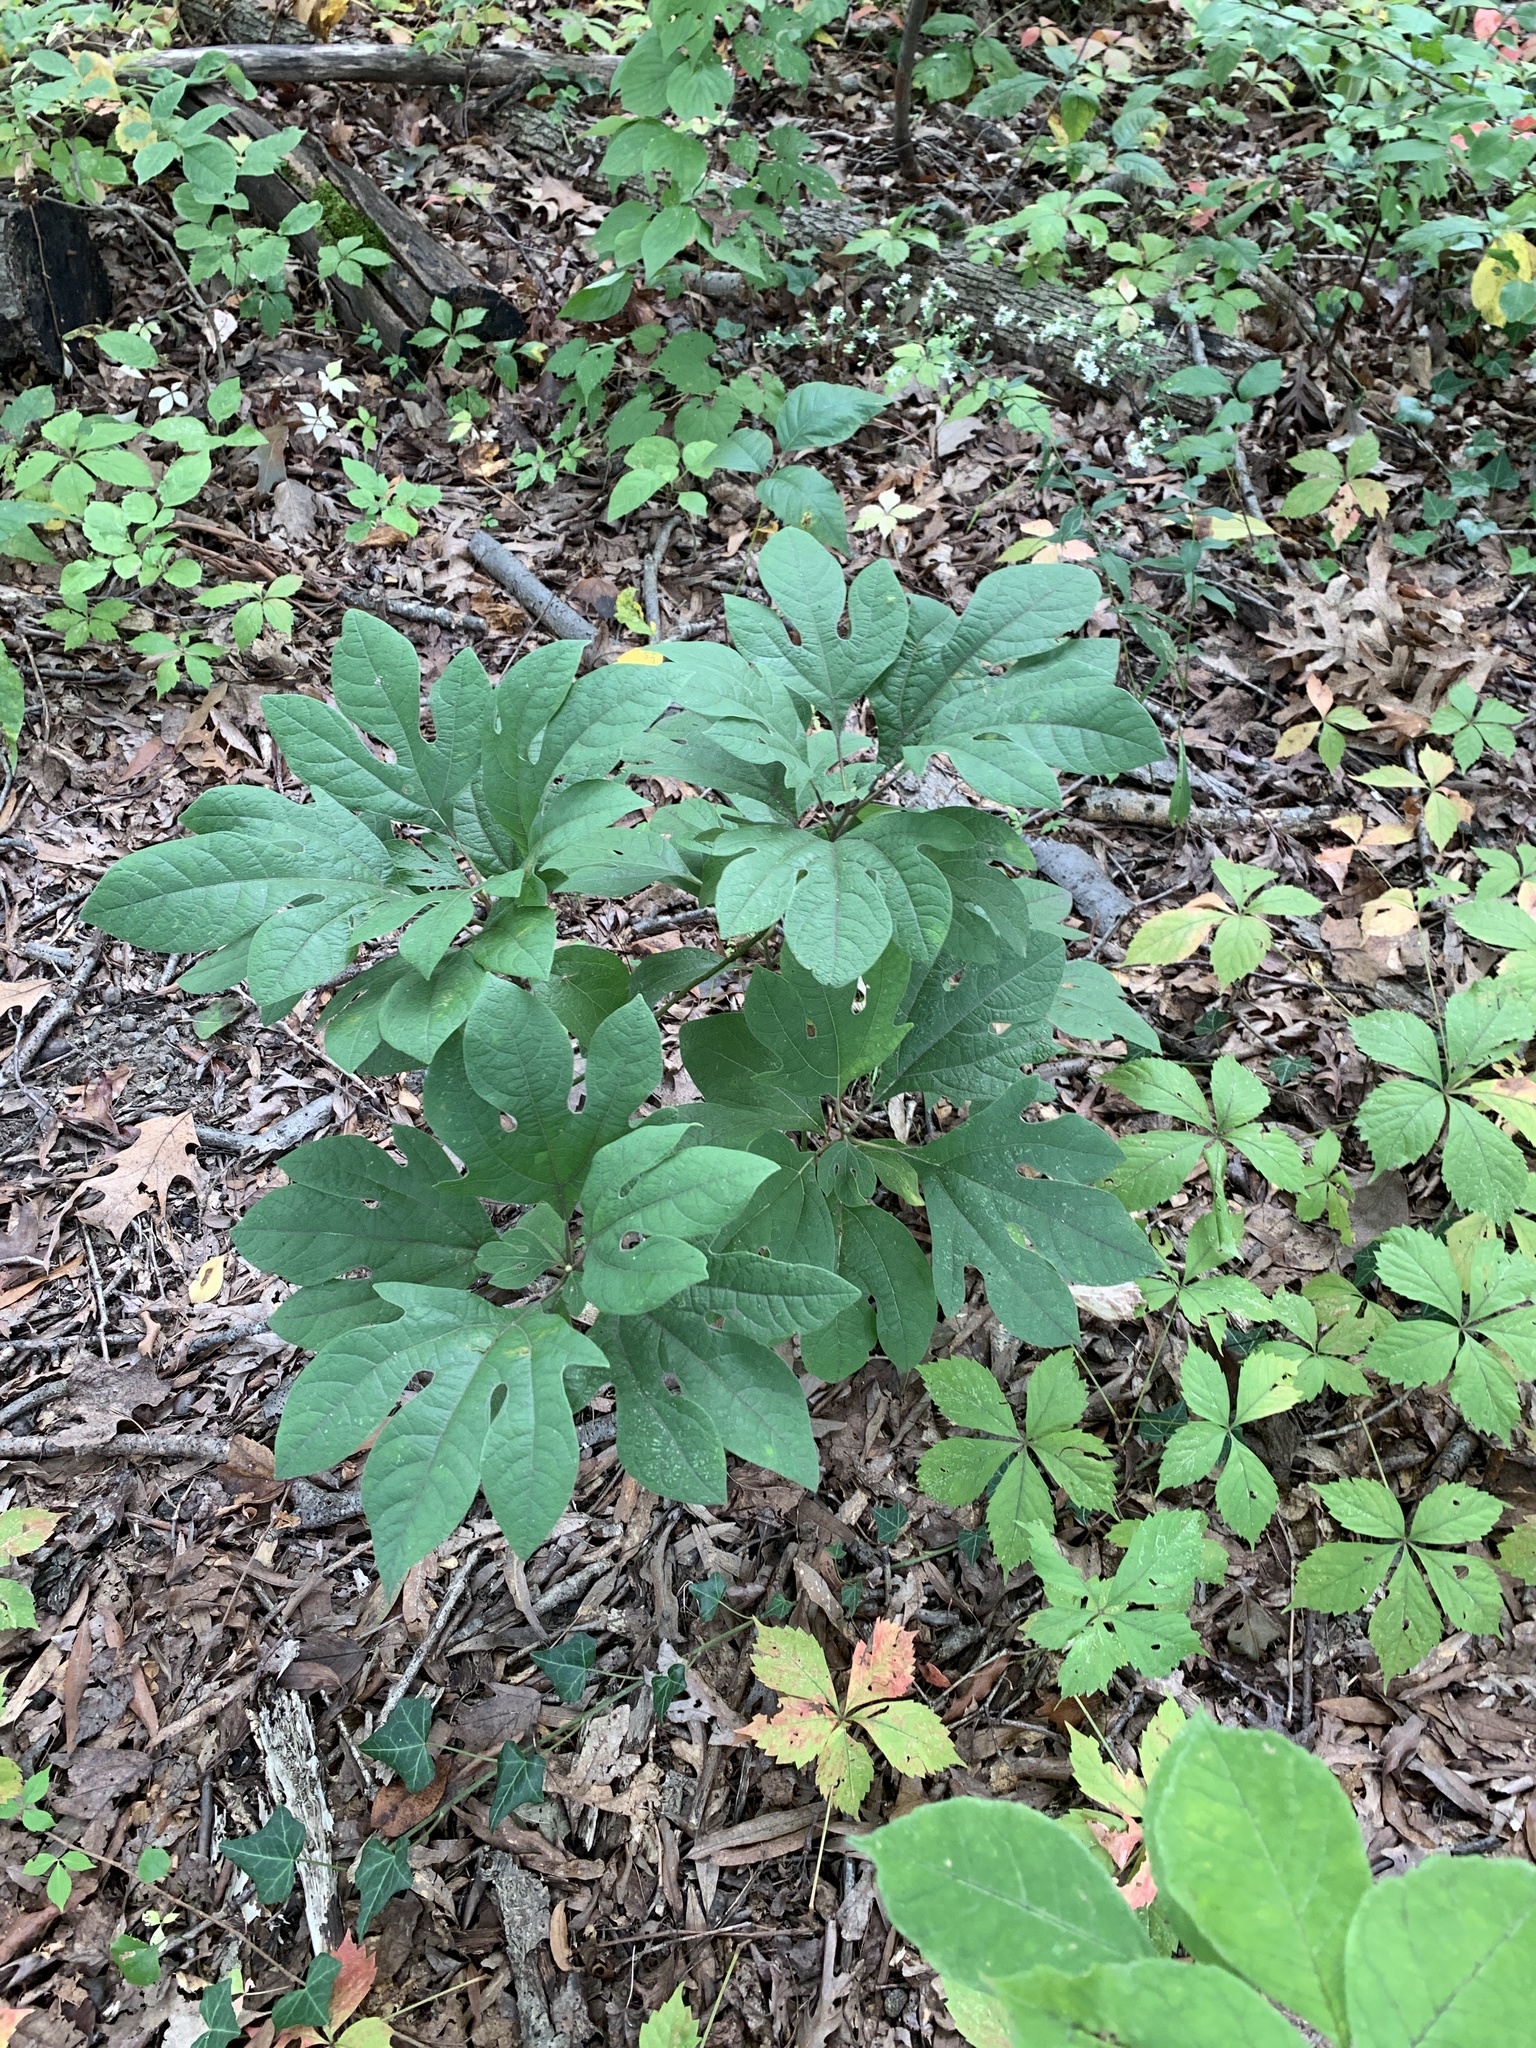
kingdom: Plantae
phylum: Tracheophyta
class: Magnoliopsida
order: Laurales
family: Lauraceae
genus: Sassafras
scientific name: Sassafras albidum
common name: Sassafras
